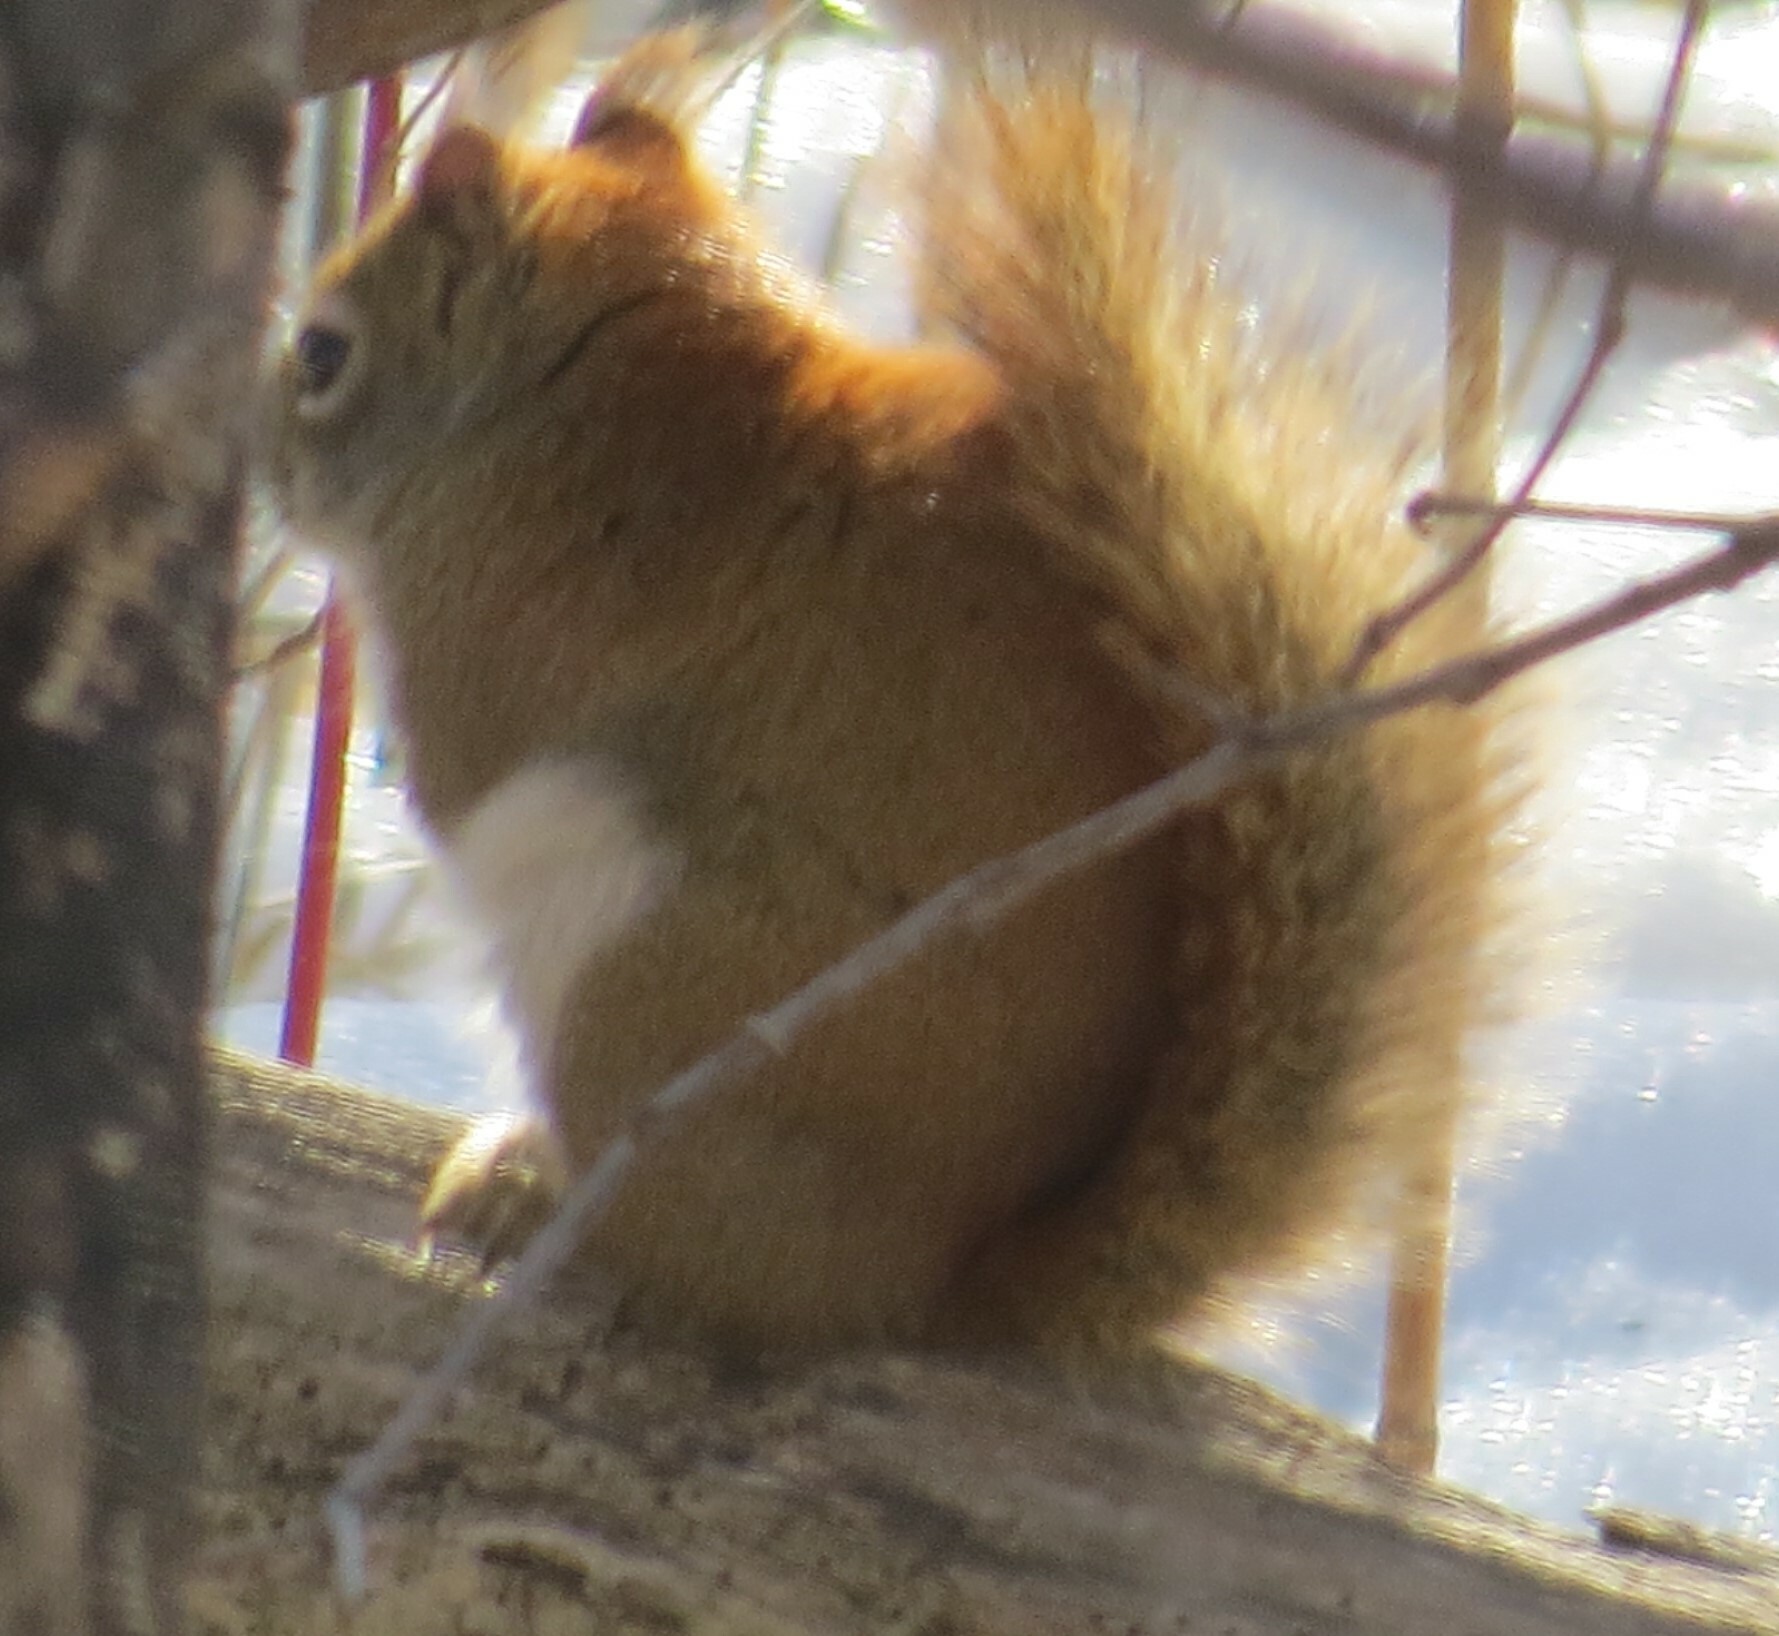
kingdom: Animalia
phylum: Chordata
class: Mammalia
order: Rodentia
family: Sciuridae
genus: Tamiasciurus
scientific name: Tamiasciurus hudsonicus
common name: Red squirrel
